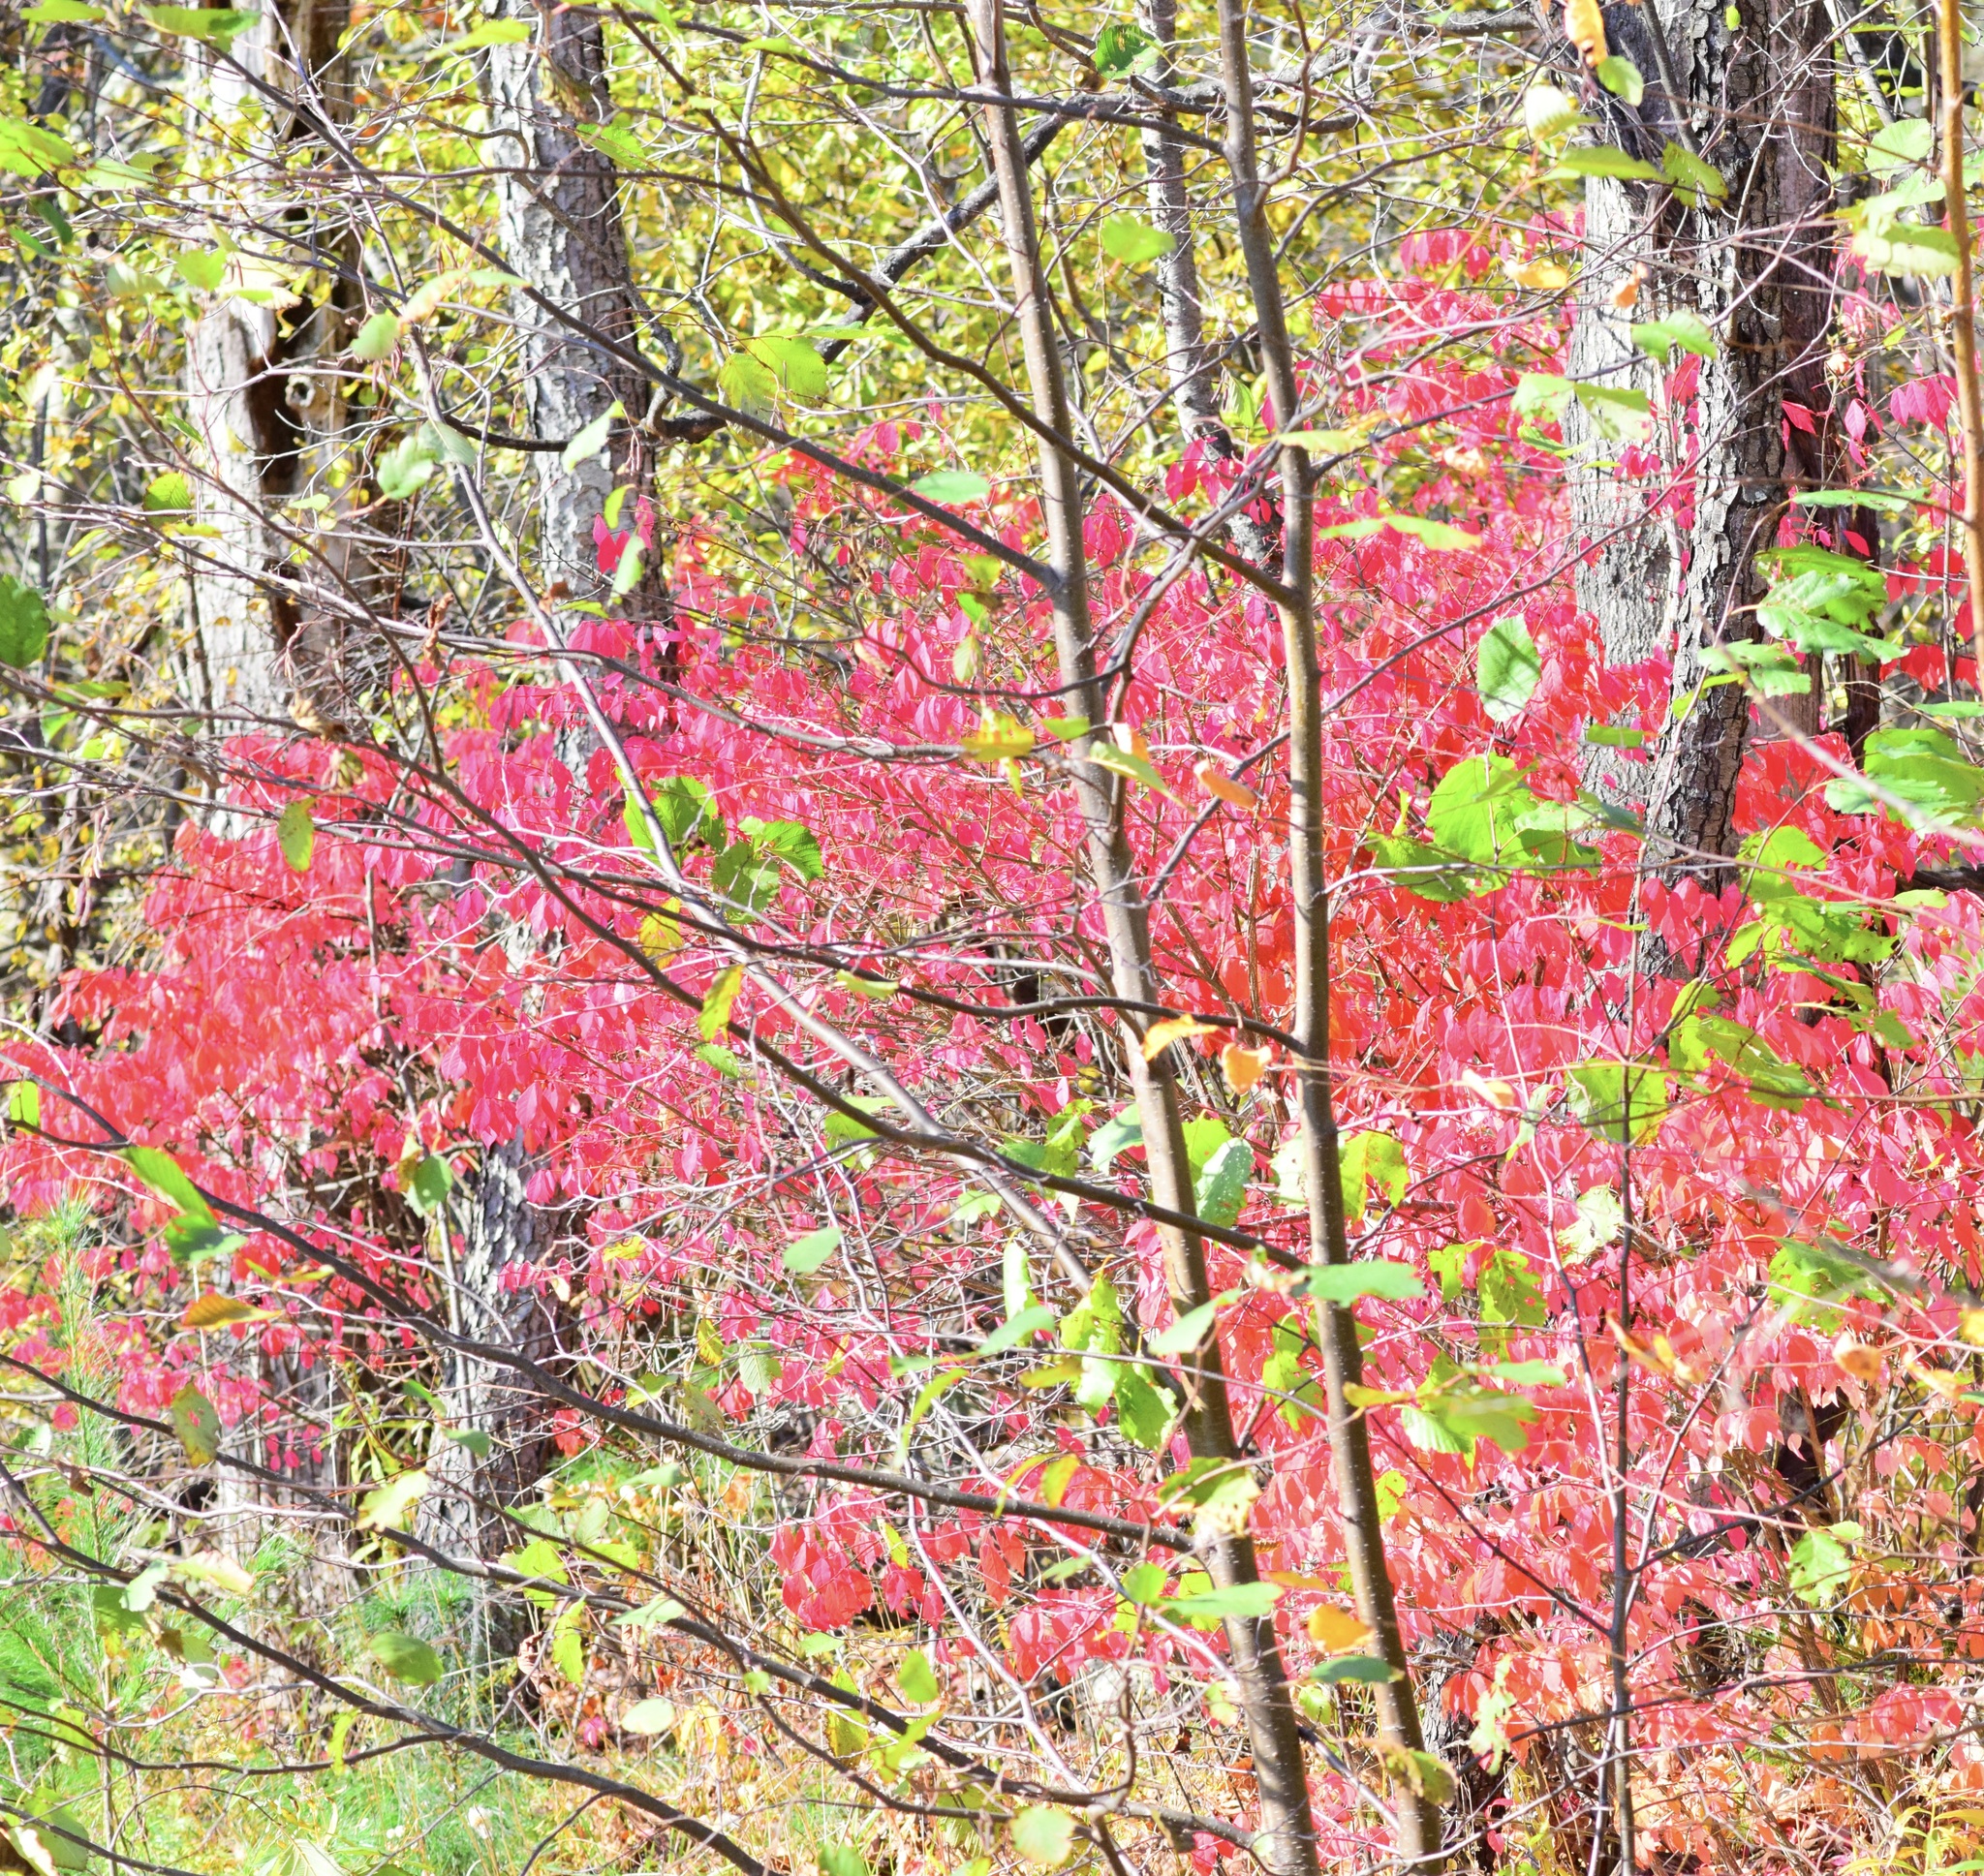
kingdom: Plantae
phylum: Tracheophyta
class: Magnoliopsida
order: Celastrales
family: Celastraceae
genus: Euonymus
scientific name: Euonymus alatus
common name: Winged euonymus
